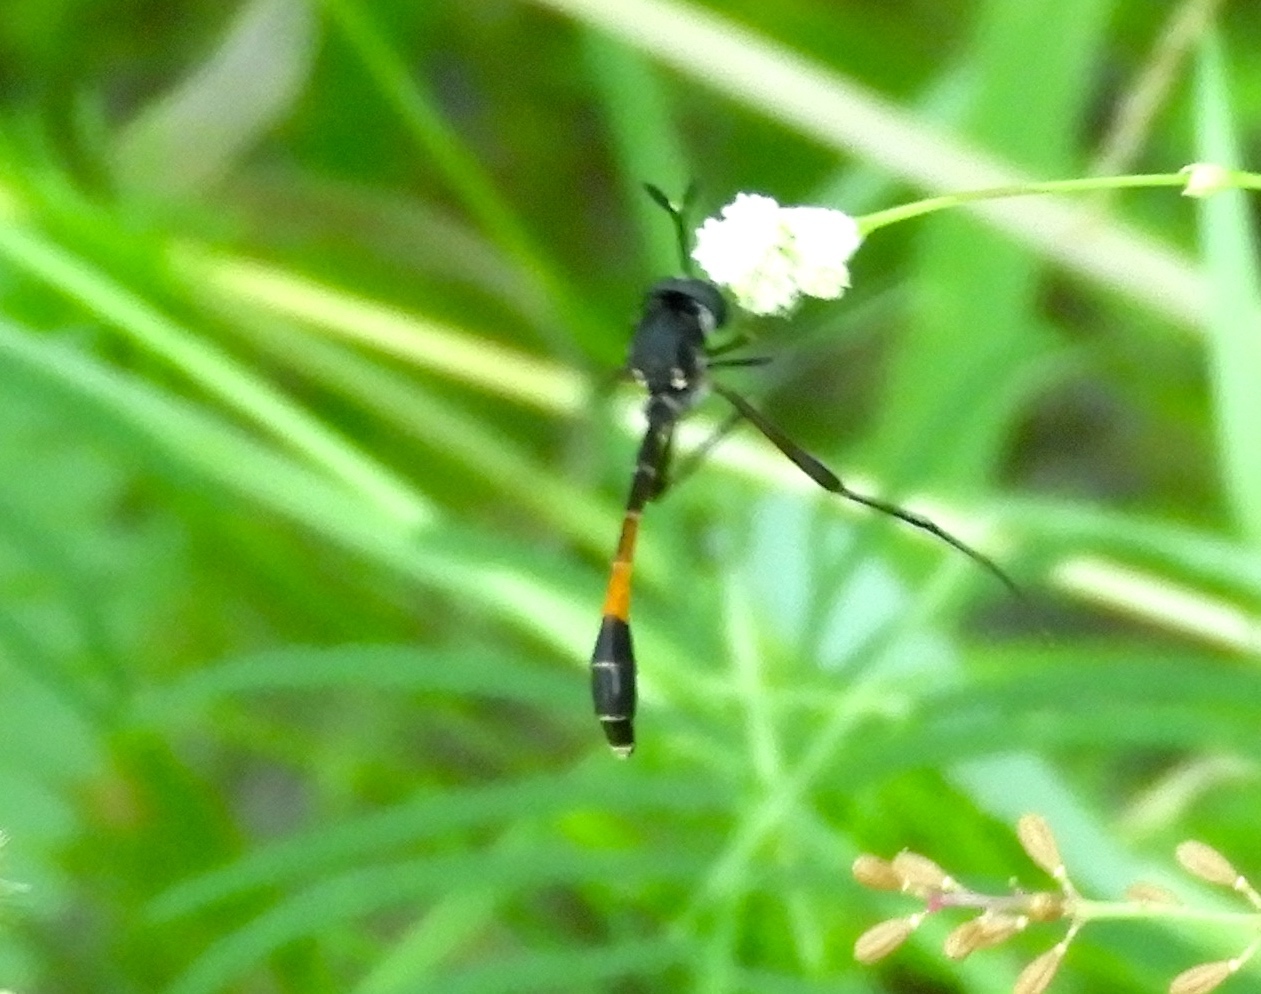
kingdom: Animalia
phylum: Arthropoda
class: Insecta
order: Diptera
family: Bombyliidae
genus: Systropus
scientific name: Systropus
